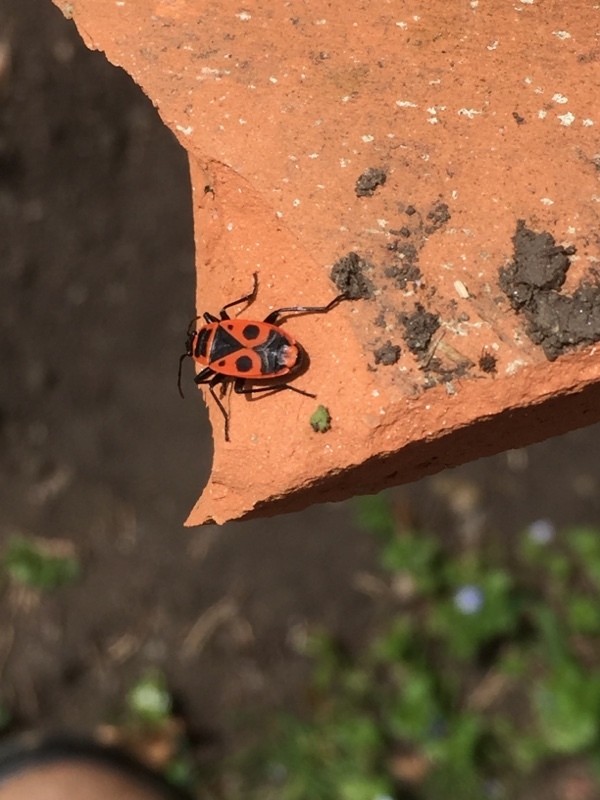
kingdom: Animalia
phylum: Arthropoda
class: Insecta
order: Hemiptera
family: Pyrrhocoridae
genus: Pyrrhocoris
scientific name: Pyrrhocoris apterus
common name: Firebug
